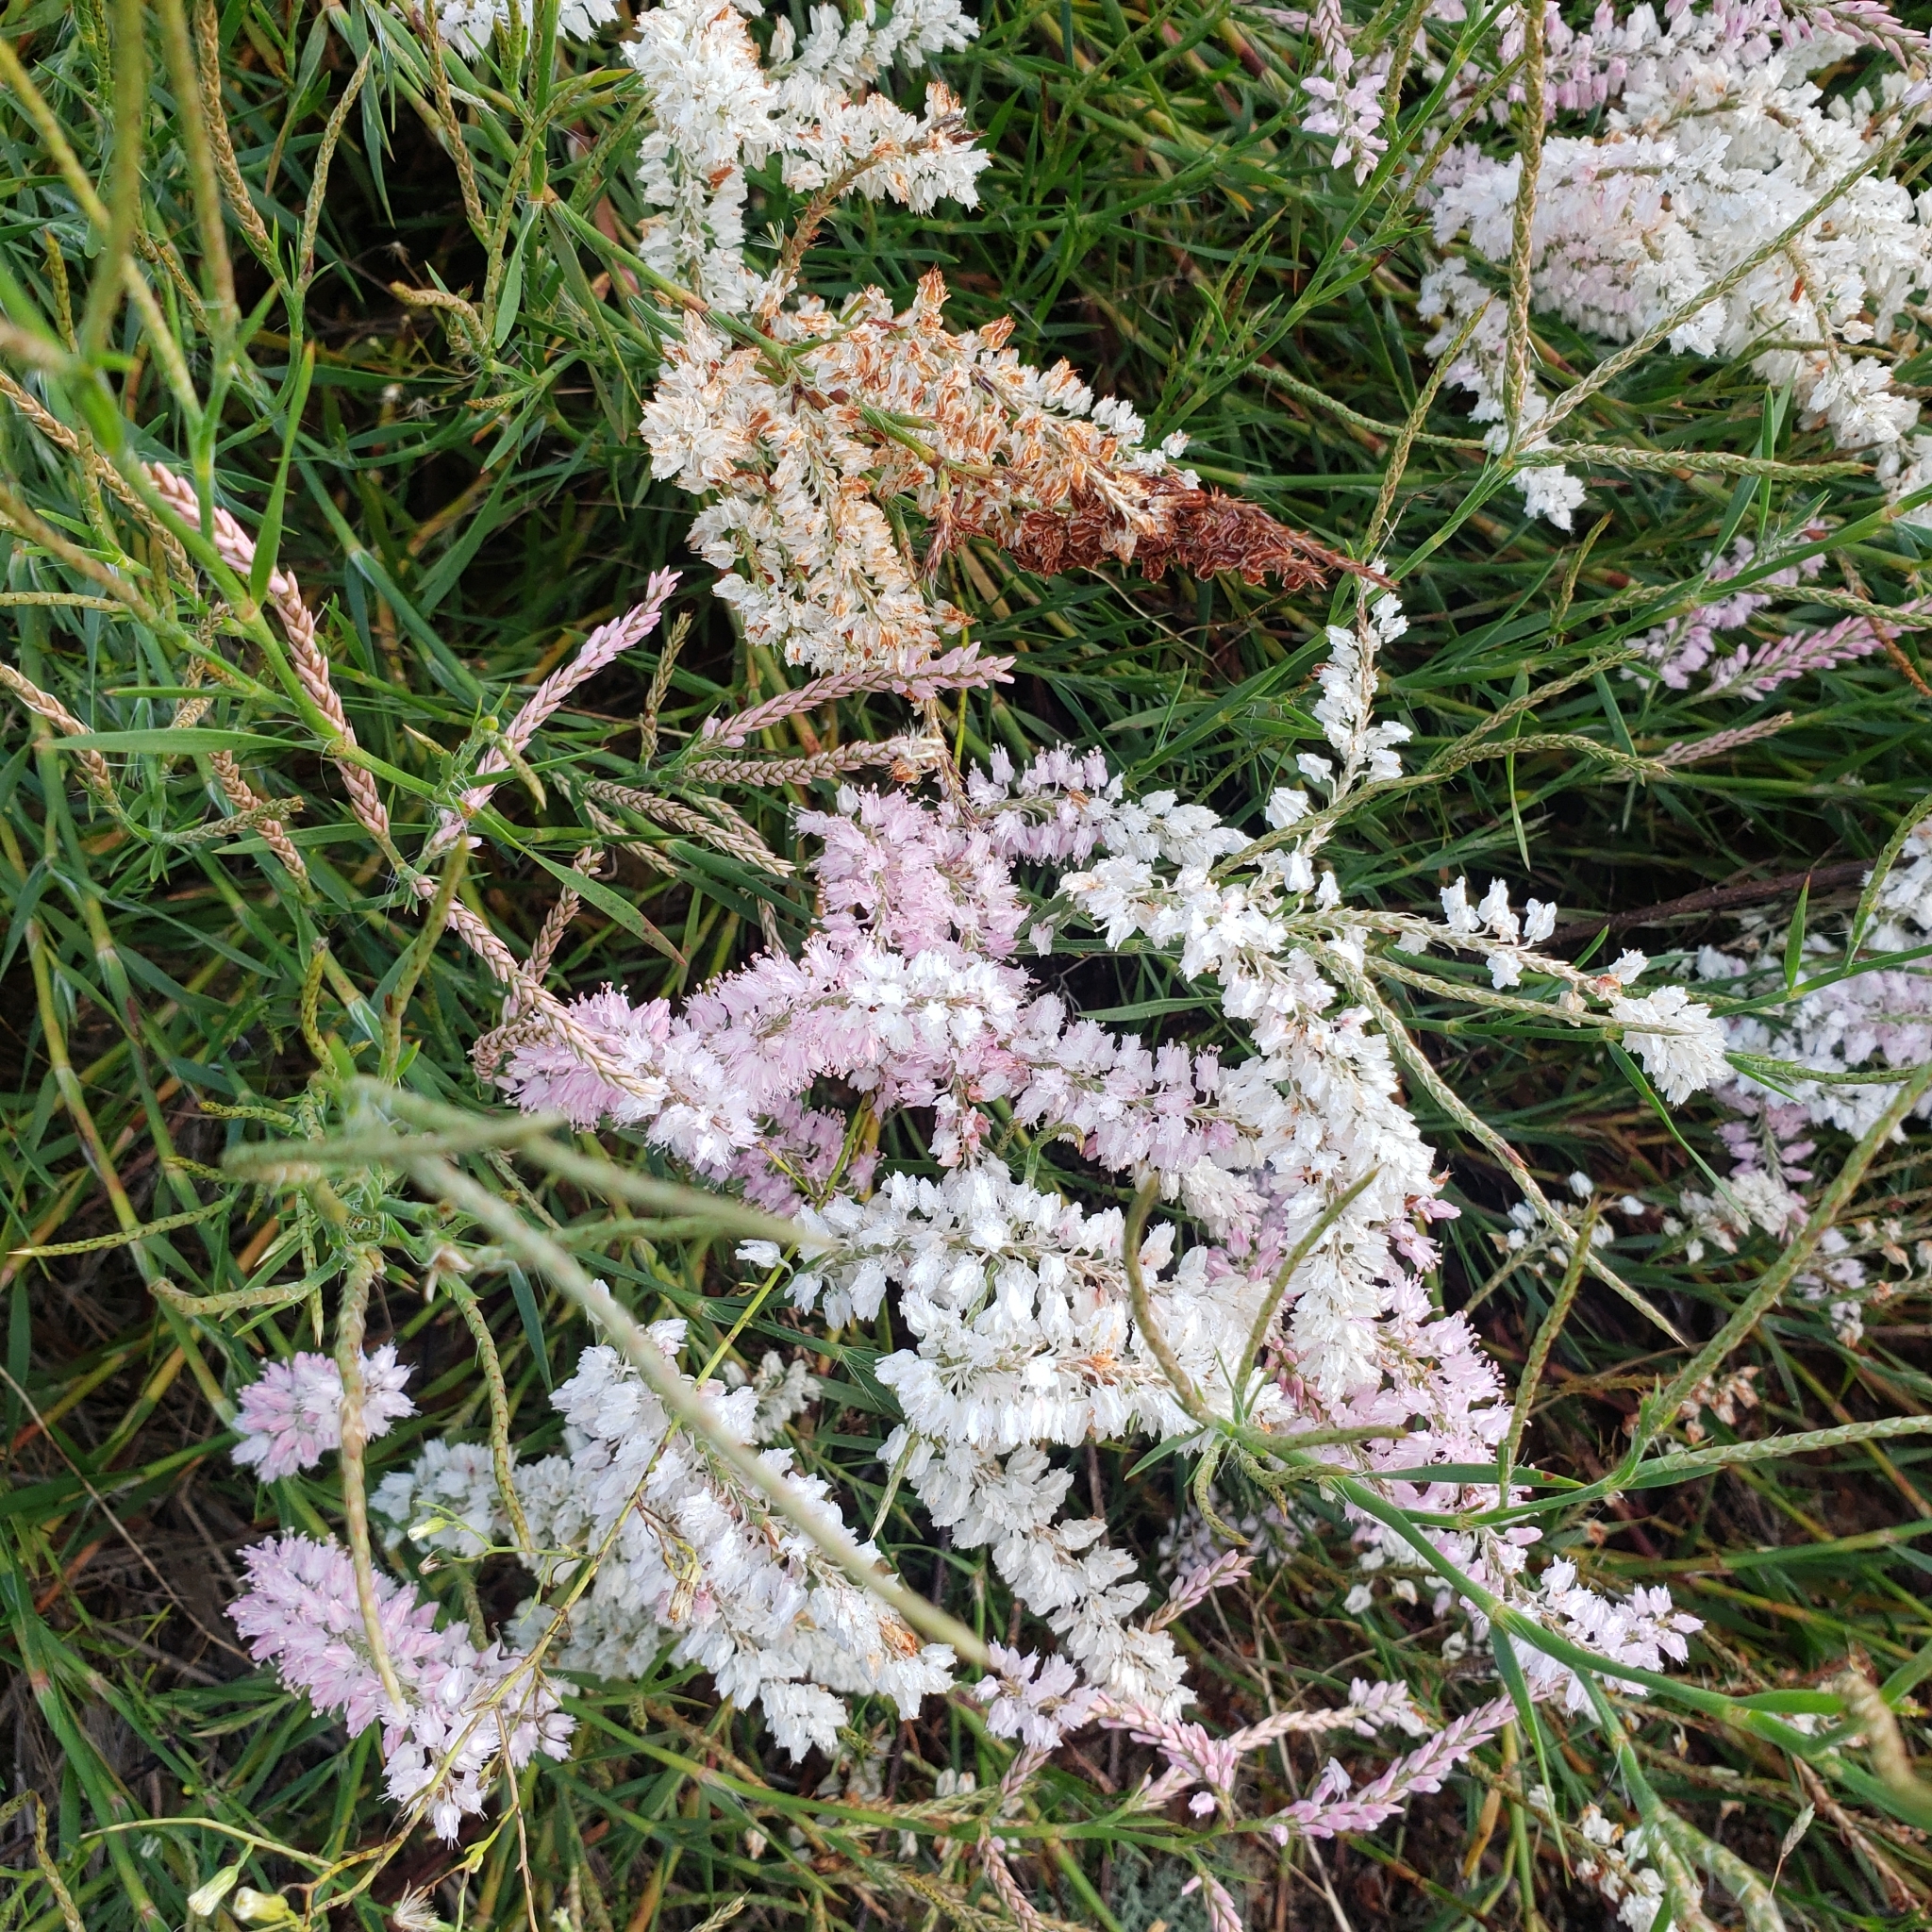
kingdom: Plantae
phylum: Tracheophyta
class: Magnoliopsida
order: Caryophyllales
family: Polygonaceae
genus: Polygonella
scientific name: Polygonella robusta
